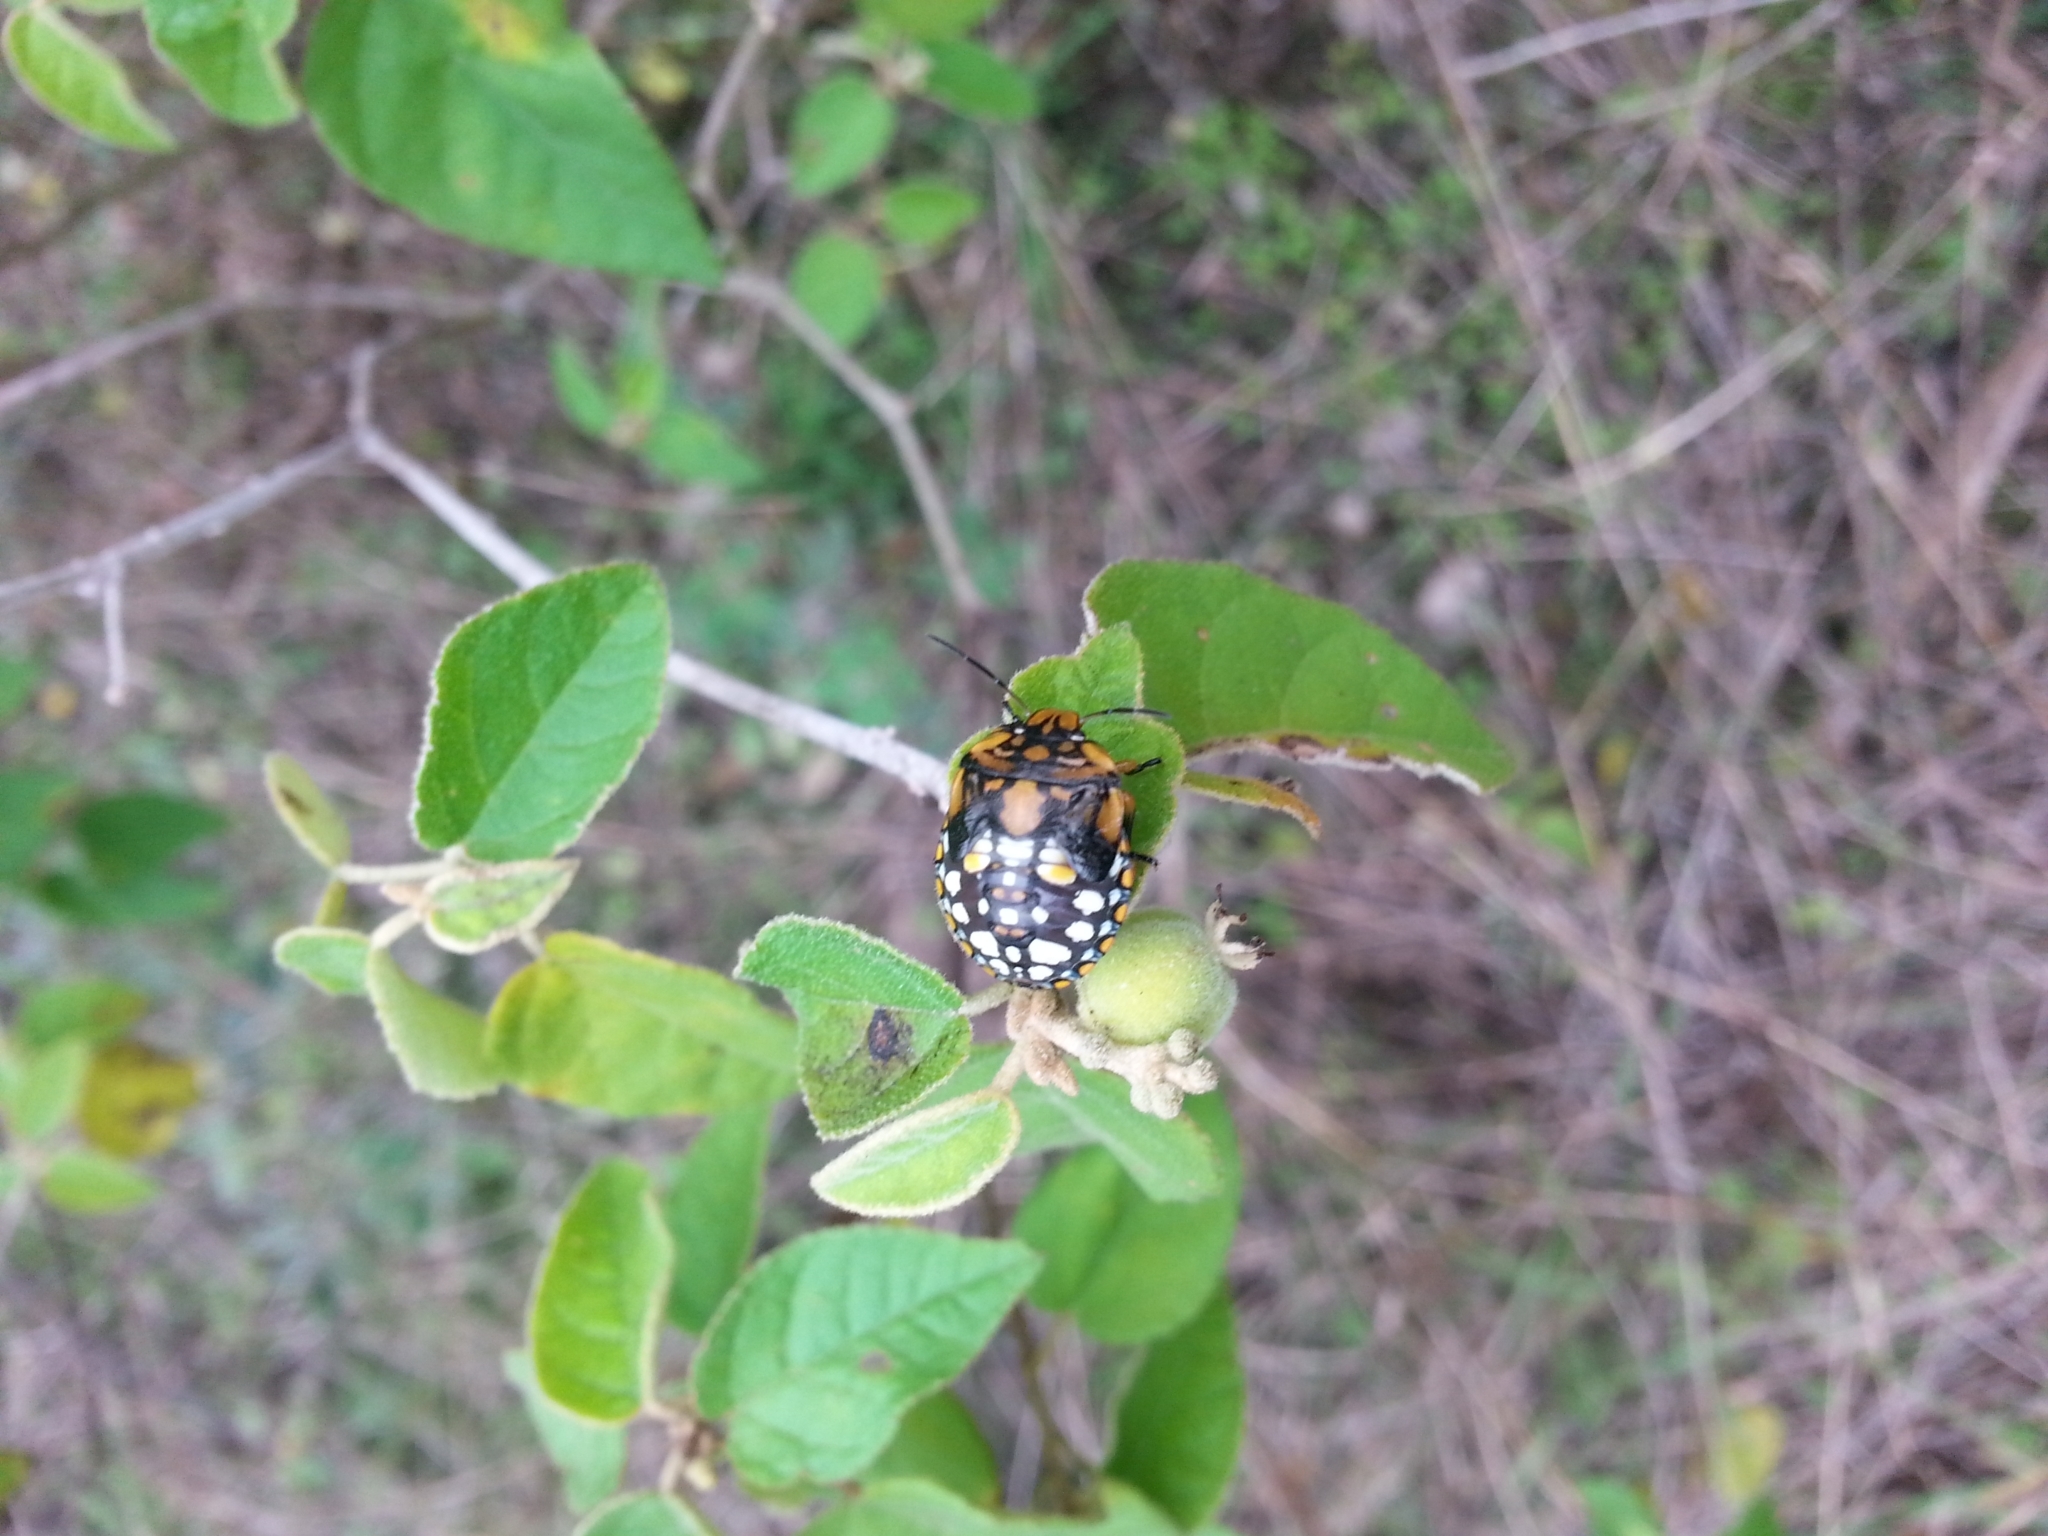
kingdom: Animalia
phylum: Arthropoda
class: Insecta
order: Hemiptera
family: Pentatomidae
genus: Acrosternum
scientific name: Acrosternum marginatum
